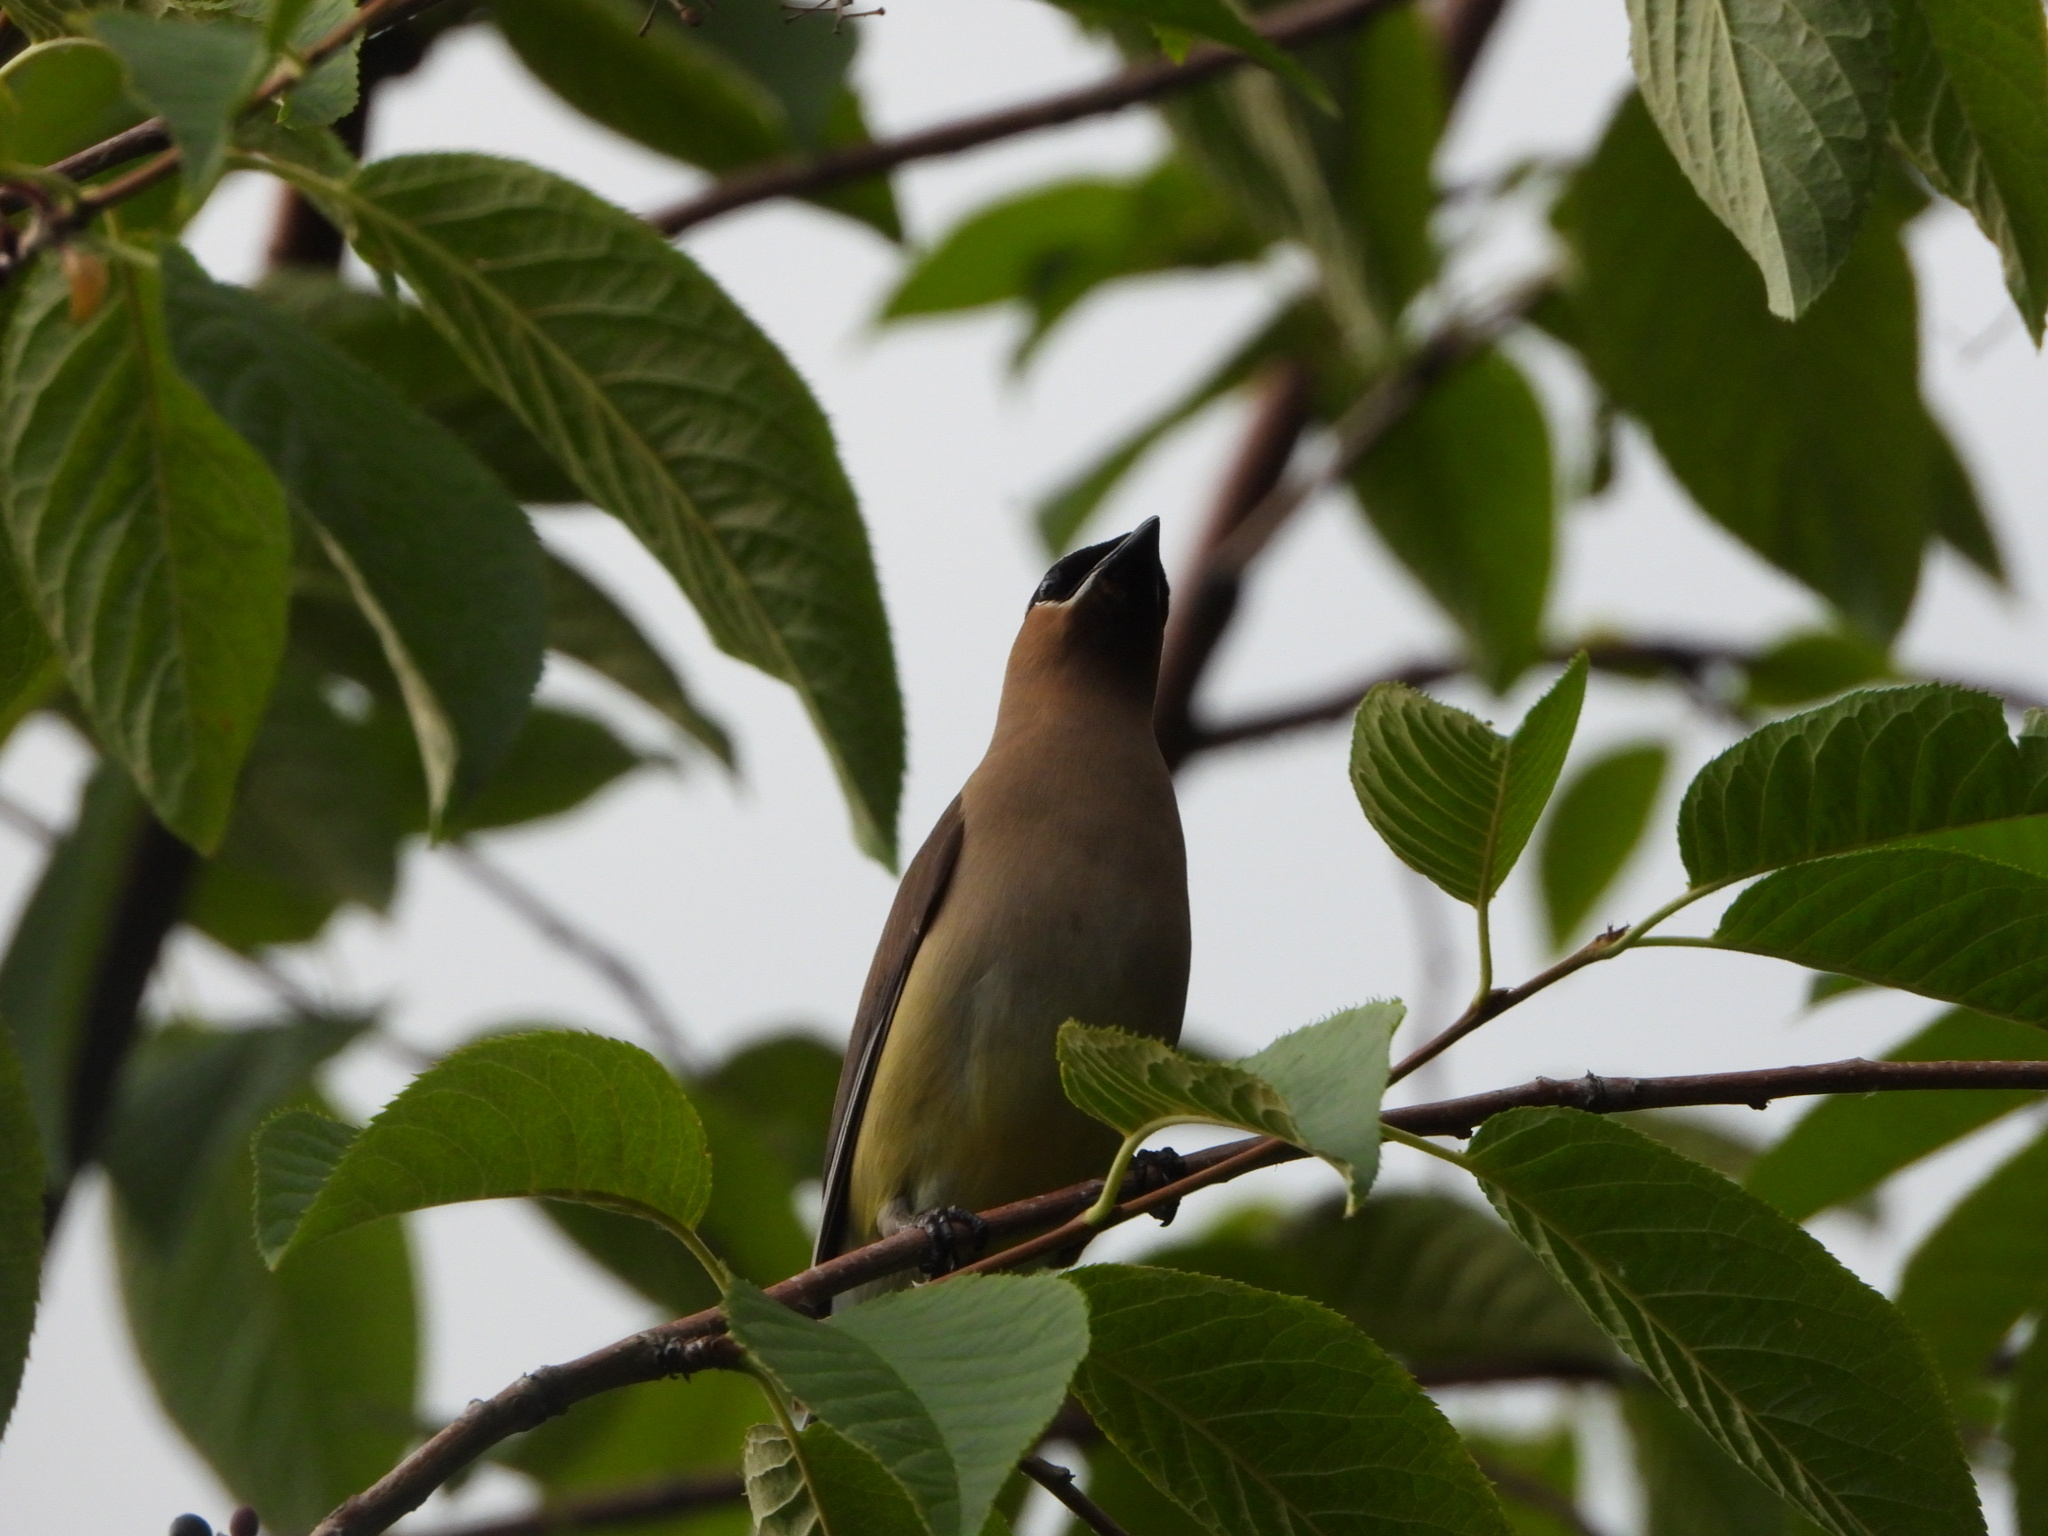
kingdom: Animalia
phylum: Chordata
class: Aves
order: Passeriformes
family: Bombycillidae
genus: Bombycilla
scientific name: Bombycilla cedrorum
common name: Cedar waxwing
